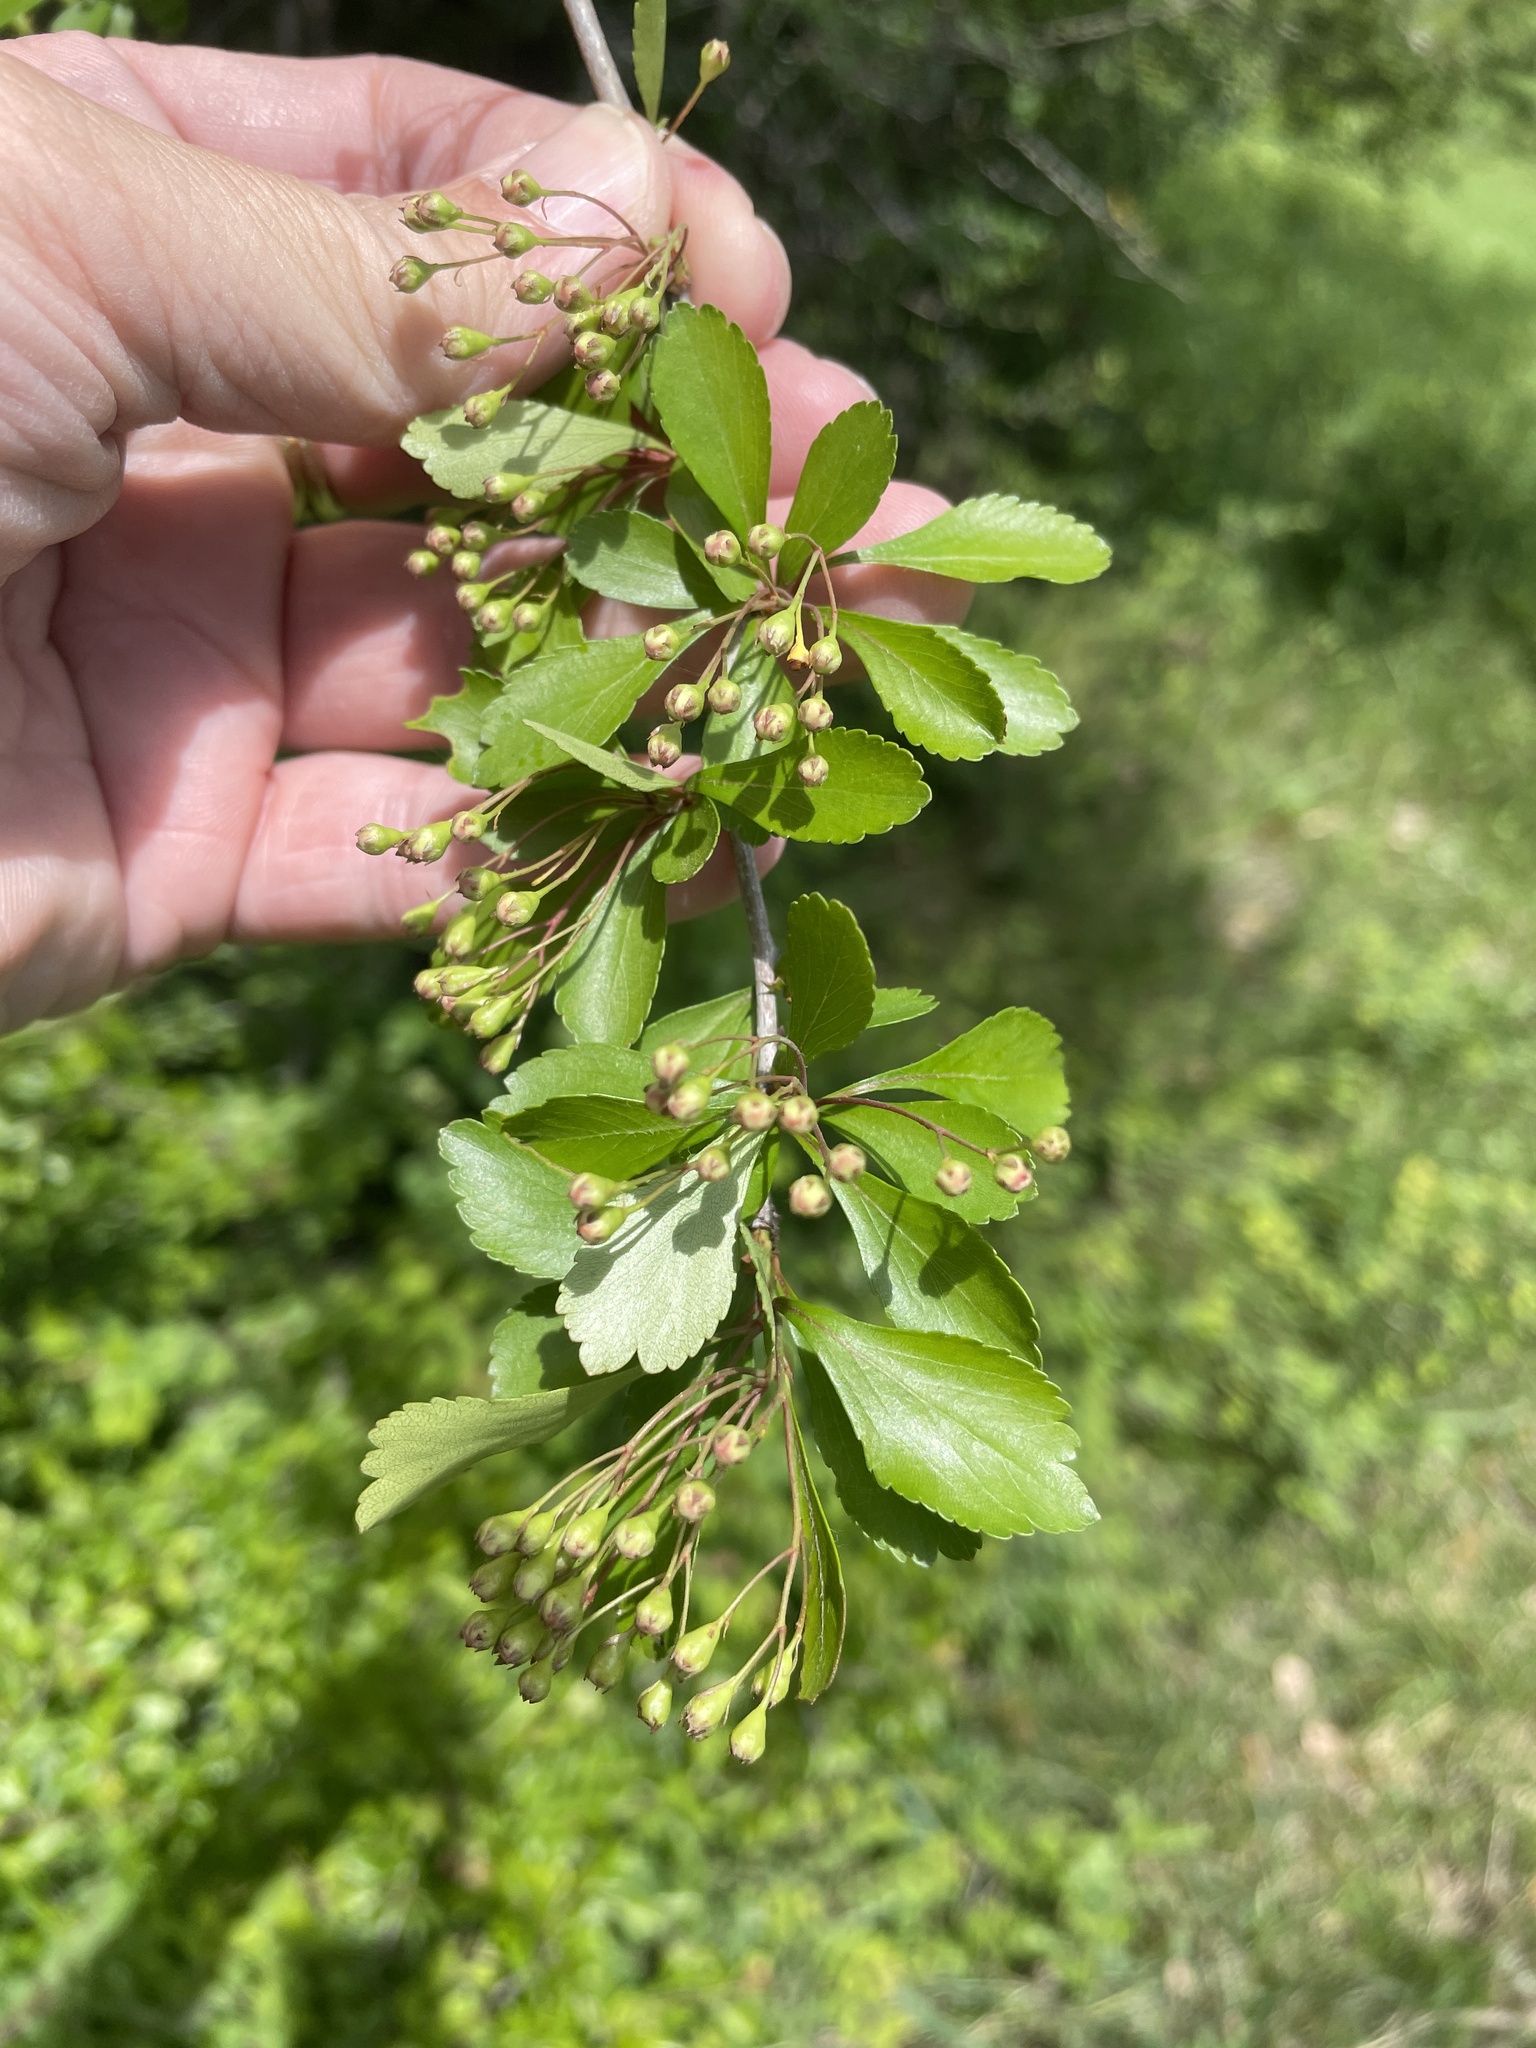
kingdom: Plantae
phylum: Tracheophyta
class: Magnoliopsida
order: Rosales
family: Rosaceae
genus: Crataegus
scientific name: Crataegus spathulata
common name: Littlehip hawthorn
